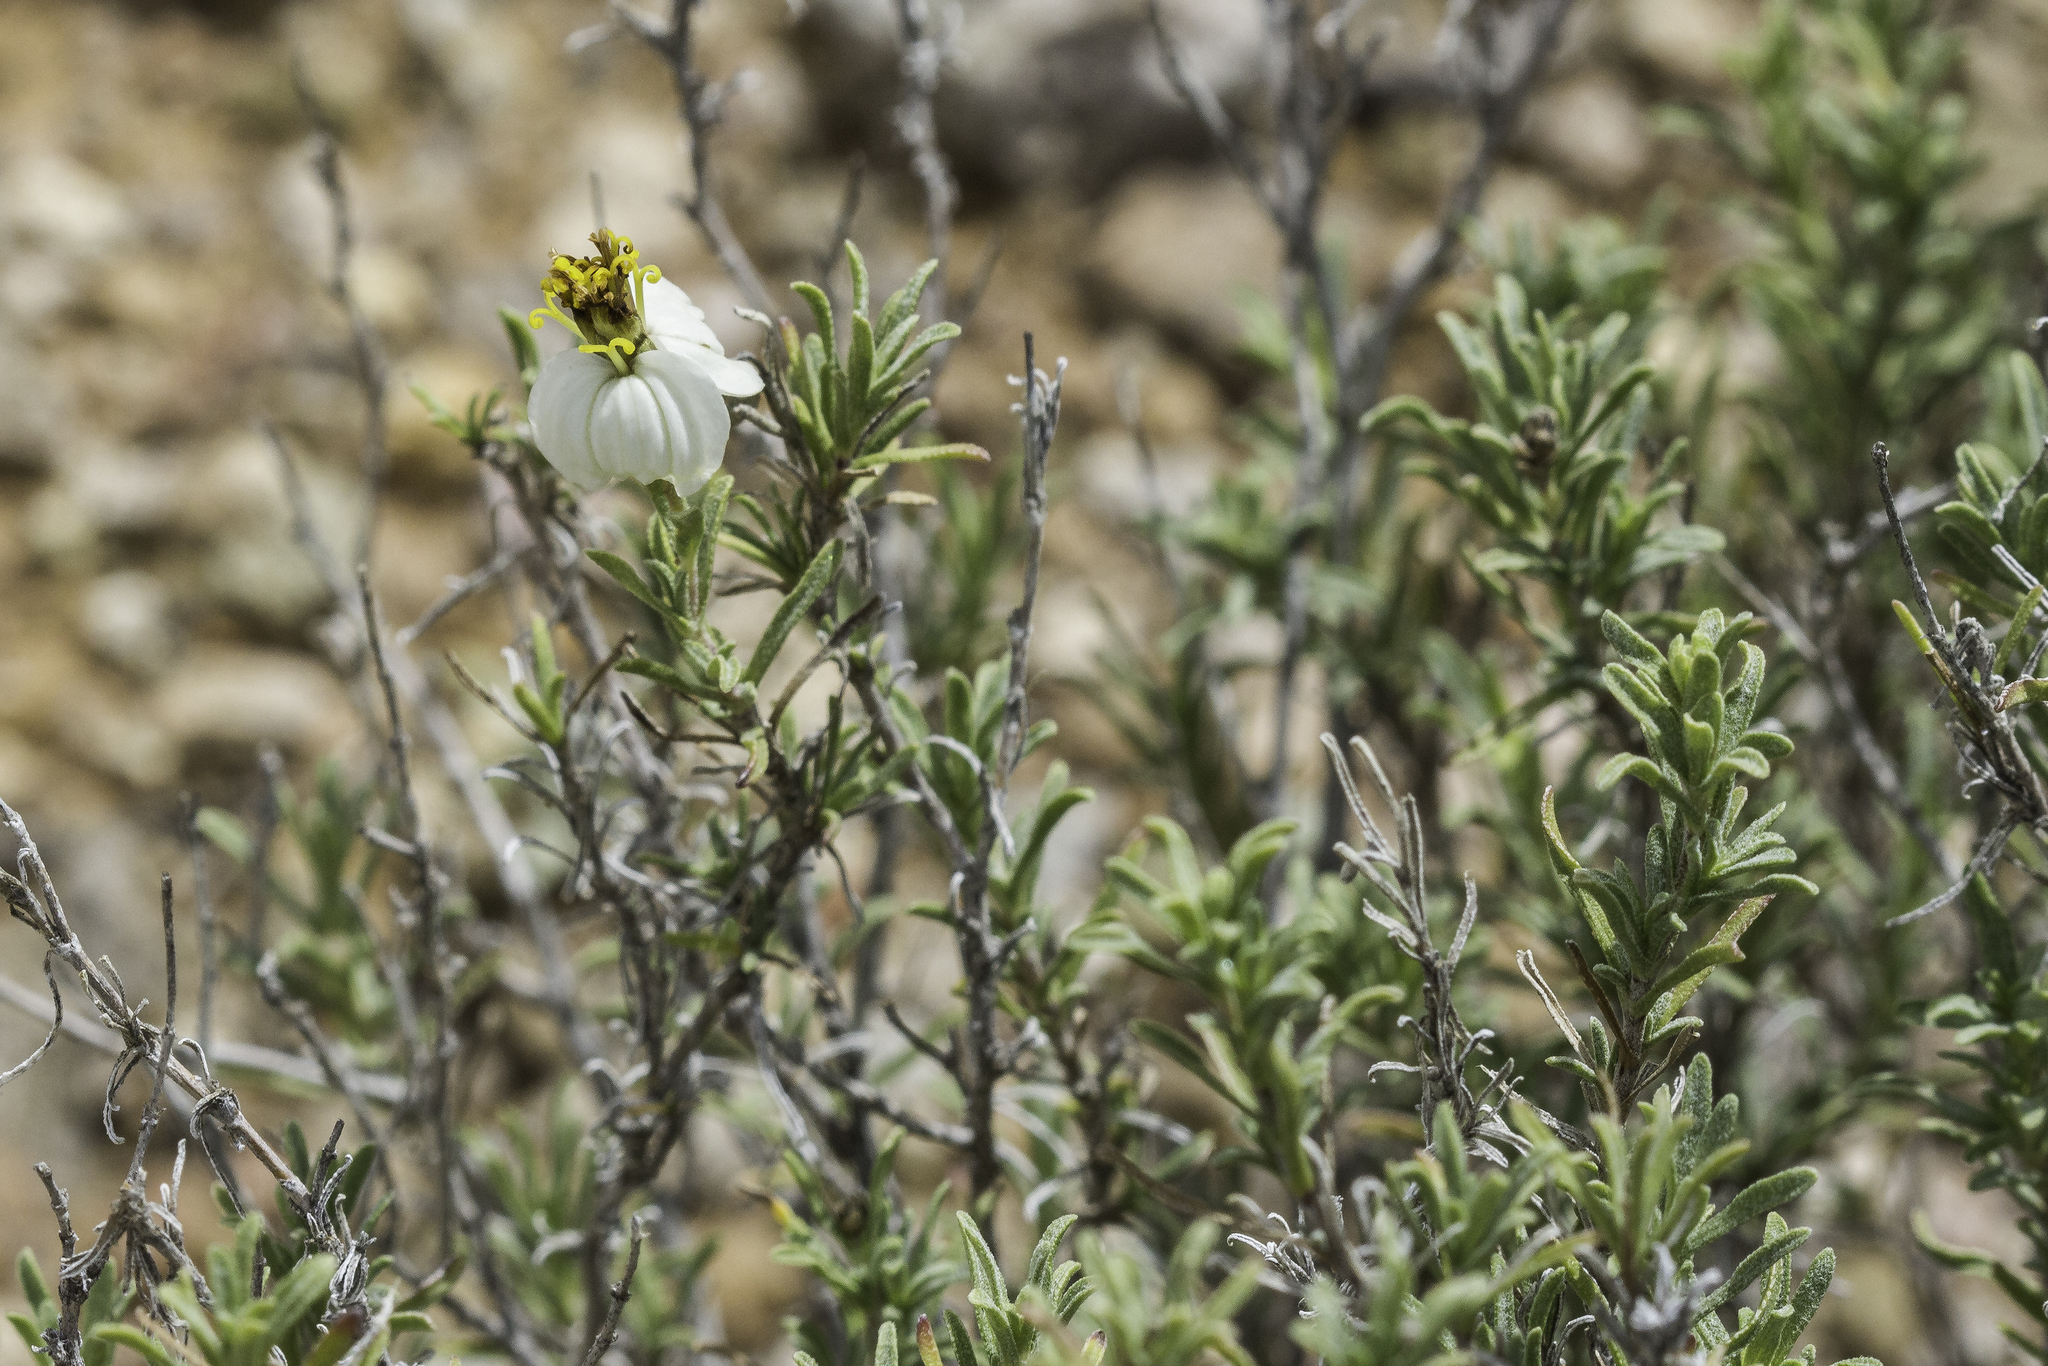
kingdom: Plantae
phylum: Tracheophyta
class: Magnoliopsida
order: Asterales
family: Asteraceae
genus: Zinnia
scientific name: Zinnia acerosa
